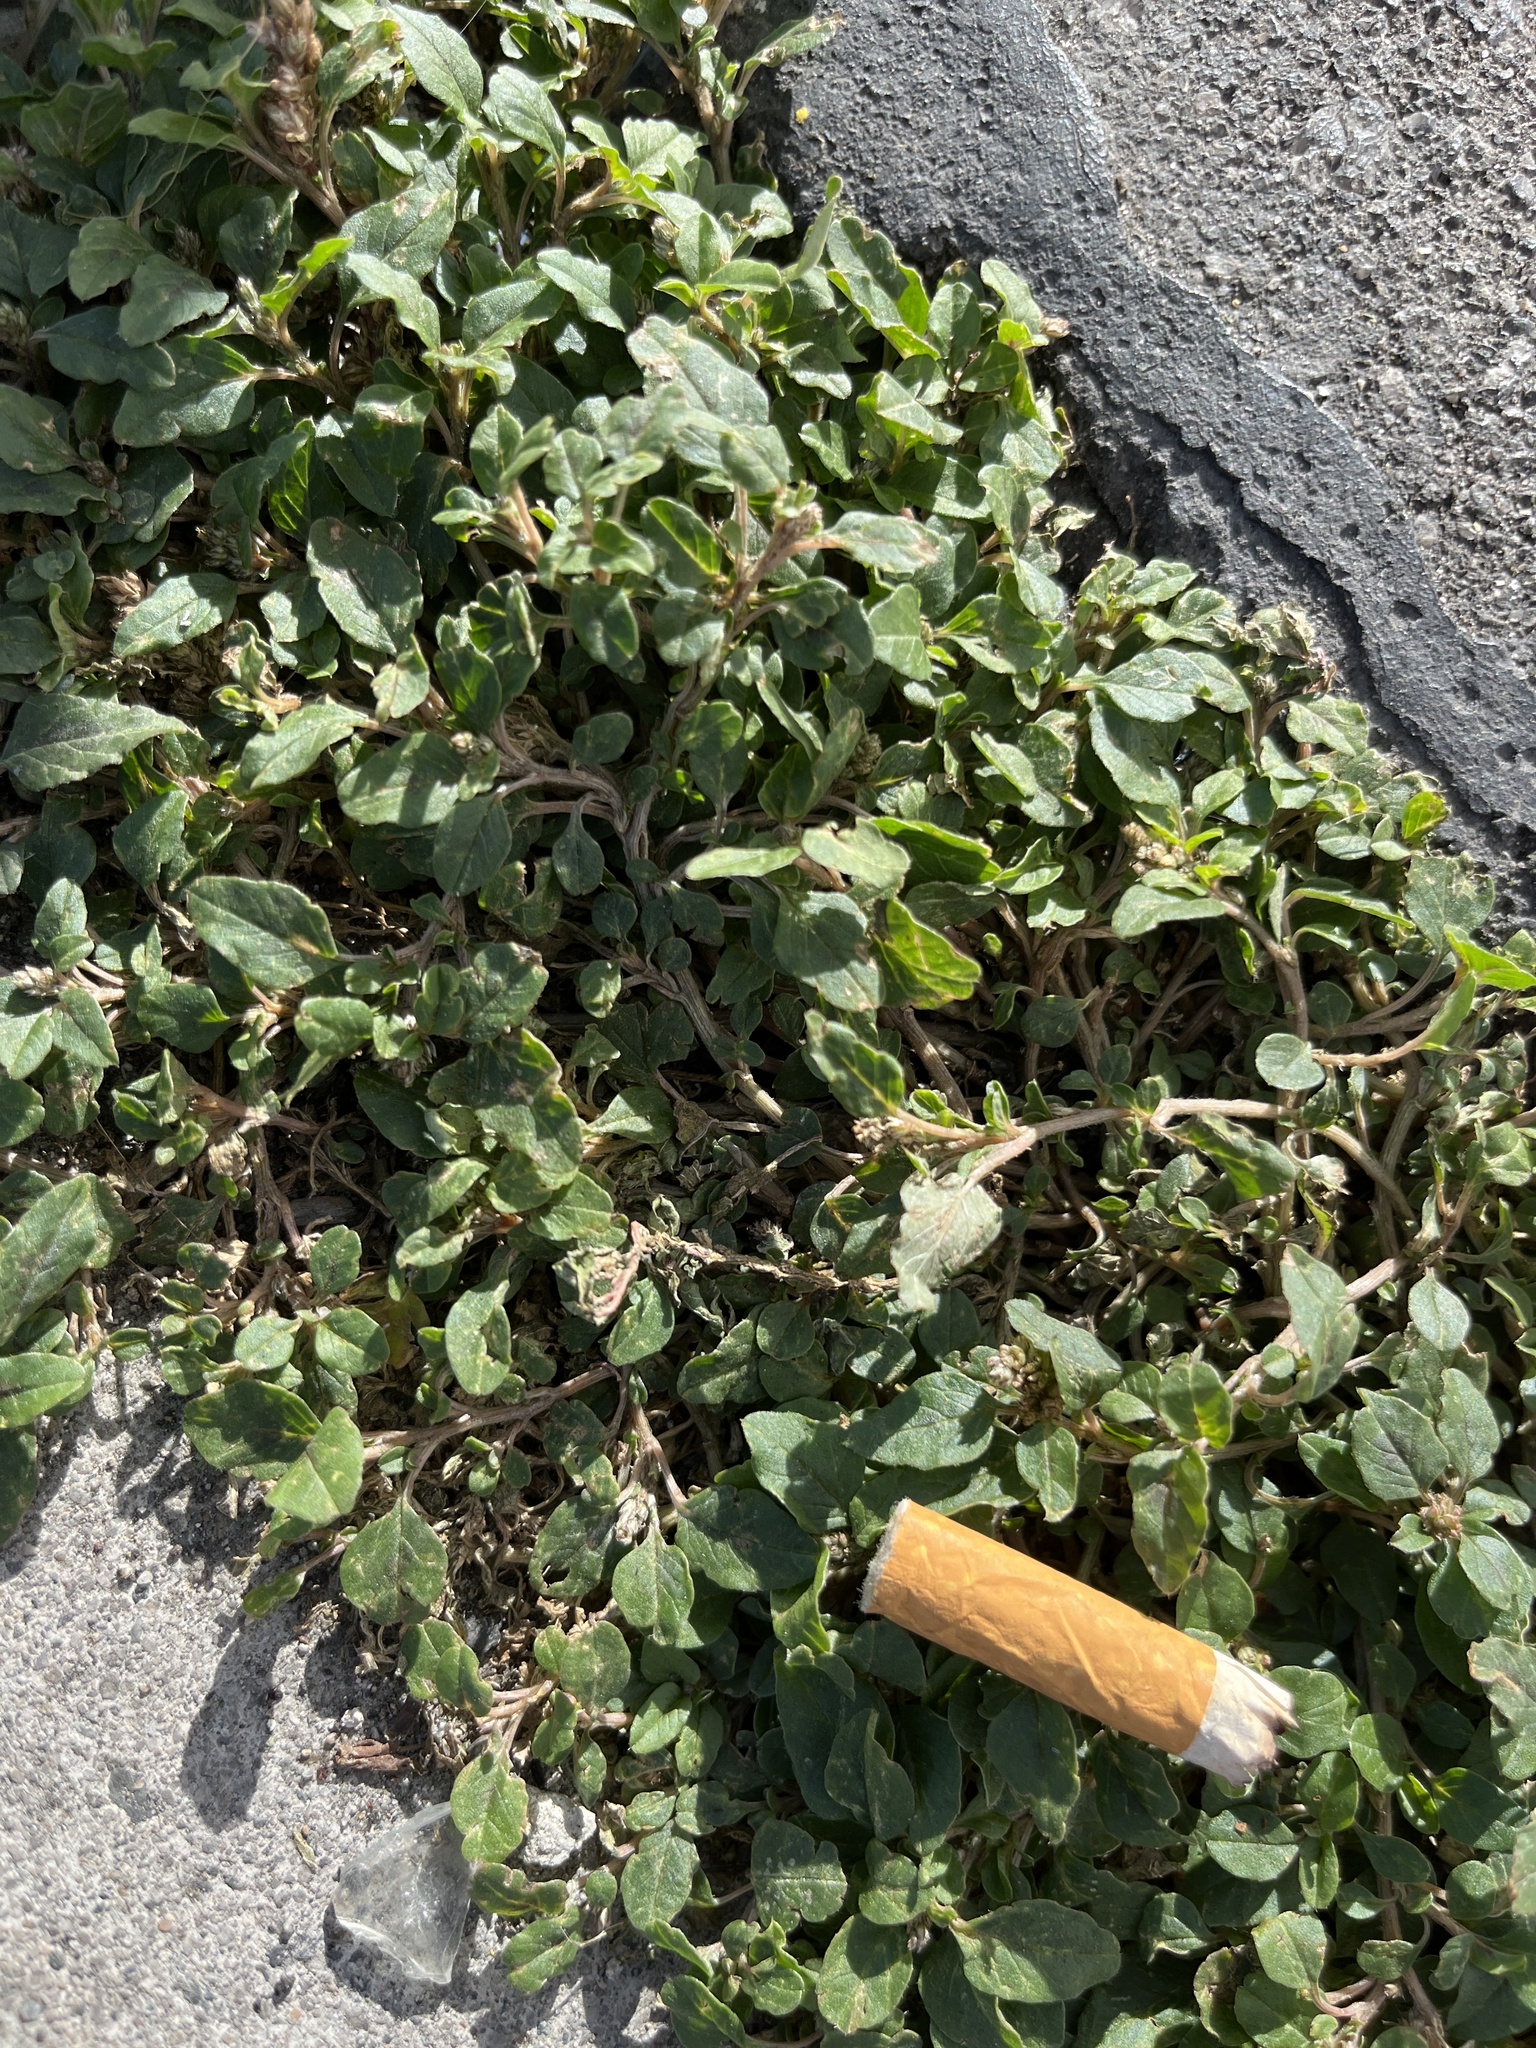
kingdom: Plantae
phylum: Tracheophyta
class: Magnoliopsida
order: Caryophyllales
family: Amaranthaceae
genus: Amaranthus
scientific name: Amaranthus deflexus
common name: Perennial pigweed
